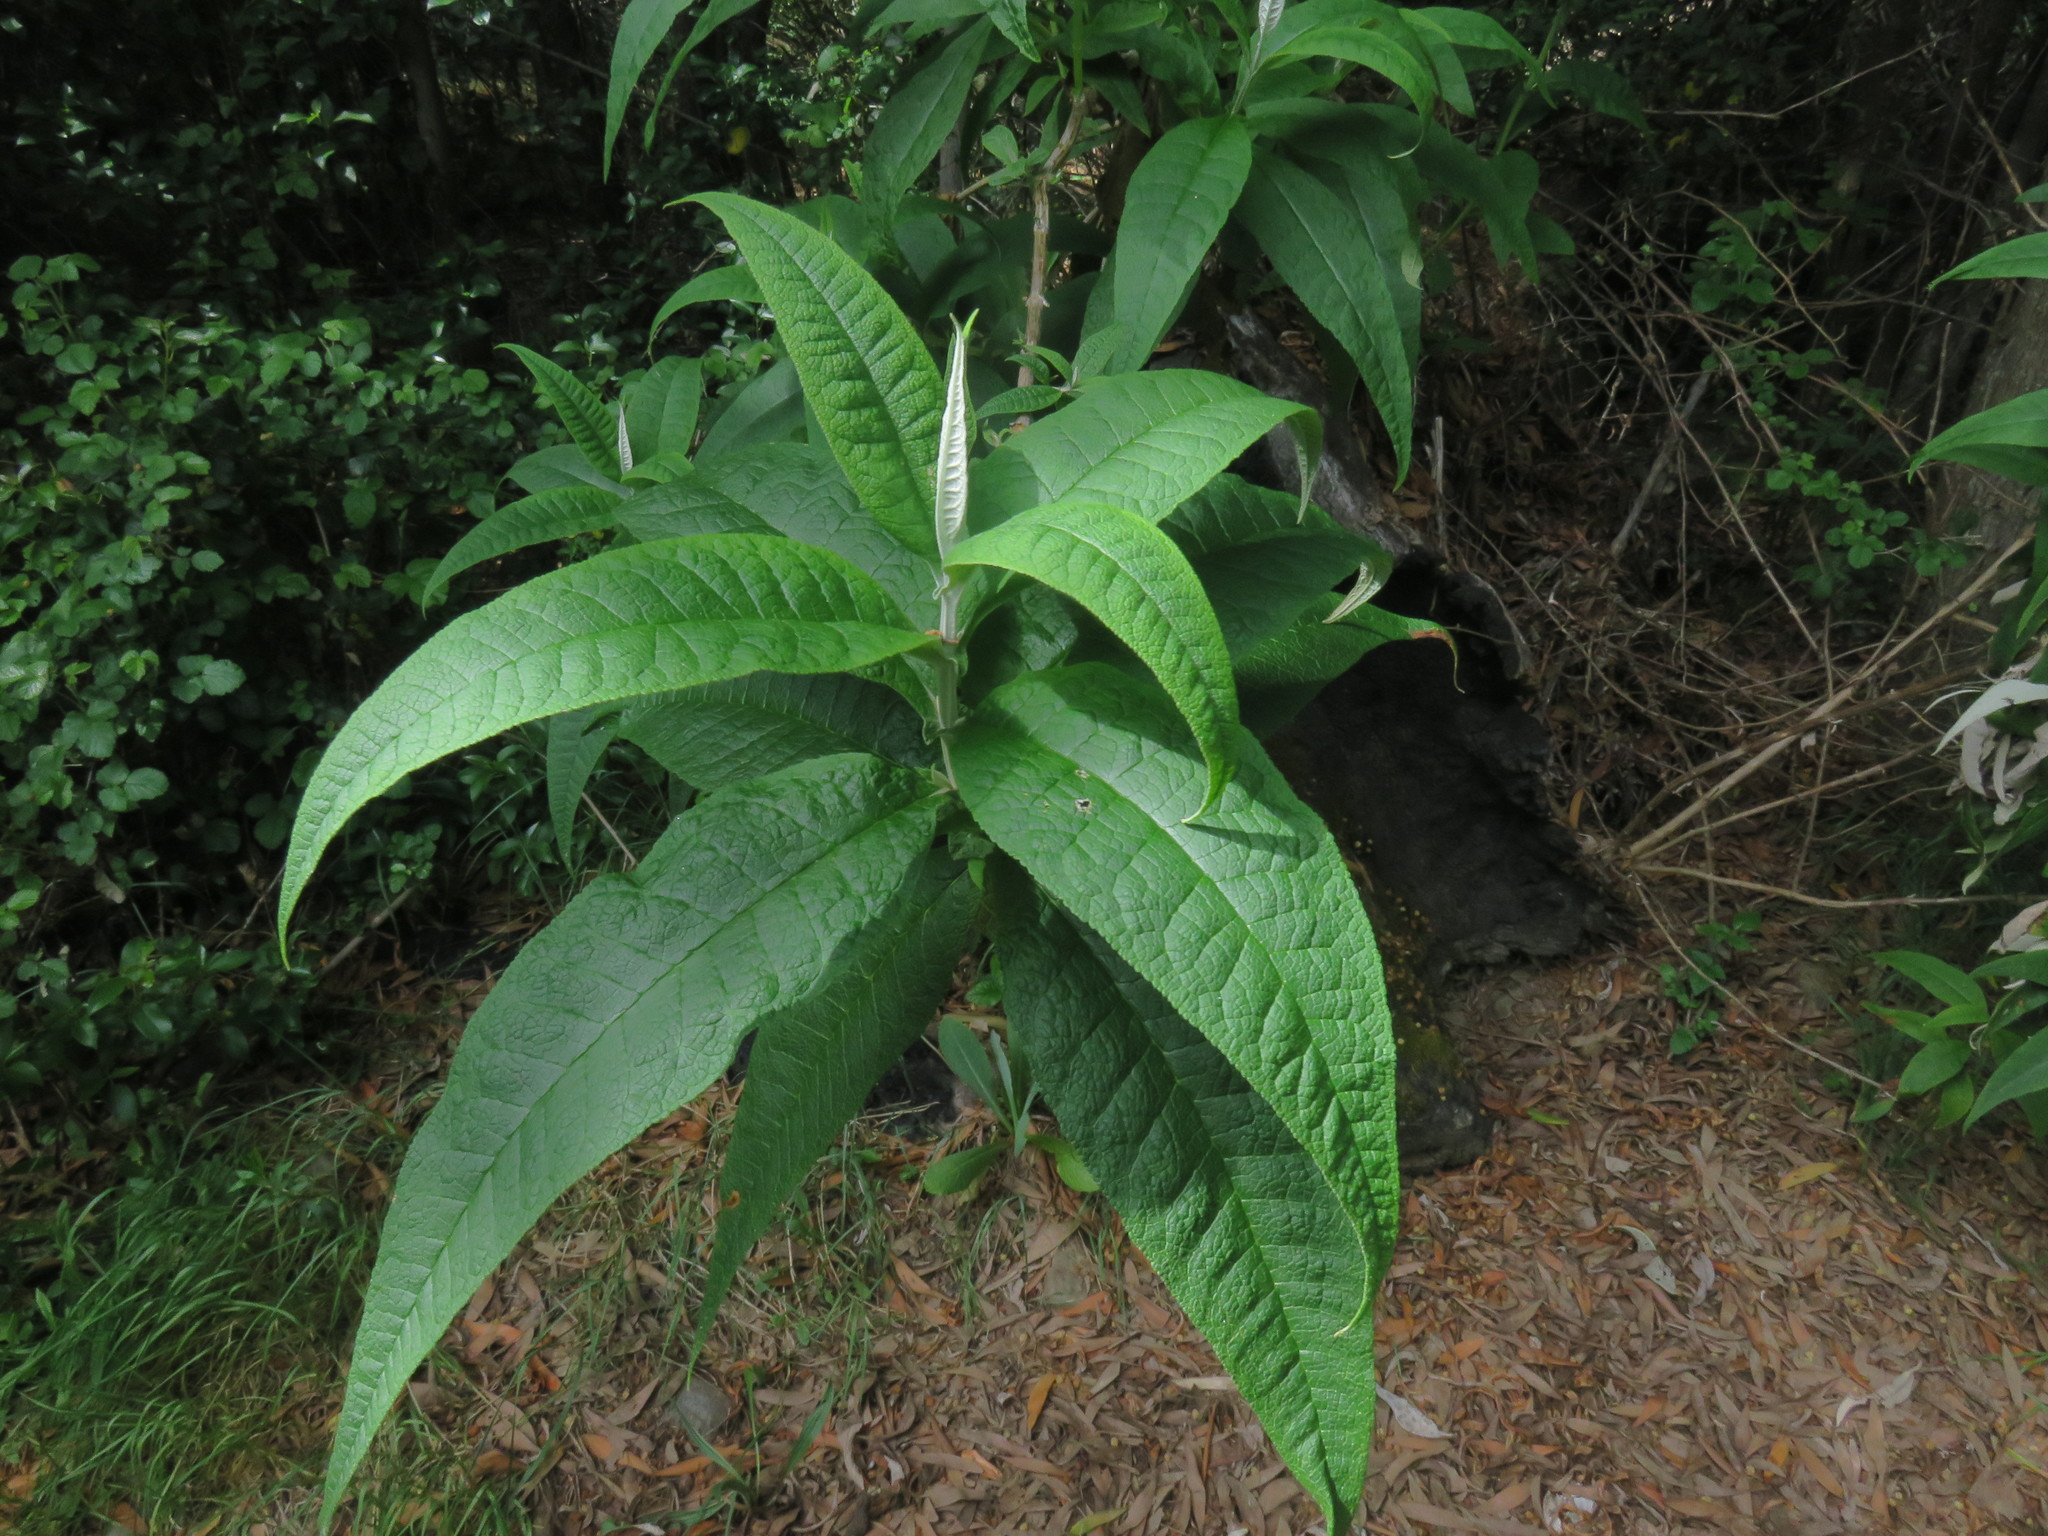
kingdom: Plantae
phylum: Tracheophyta
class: Magnoliopsida
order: Lamiales
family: Scrophulariaceae
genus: Buddleja
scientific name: Buddleja globosa
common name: Orange-ball-tree
